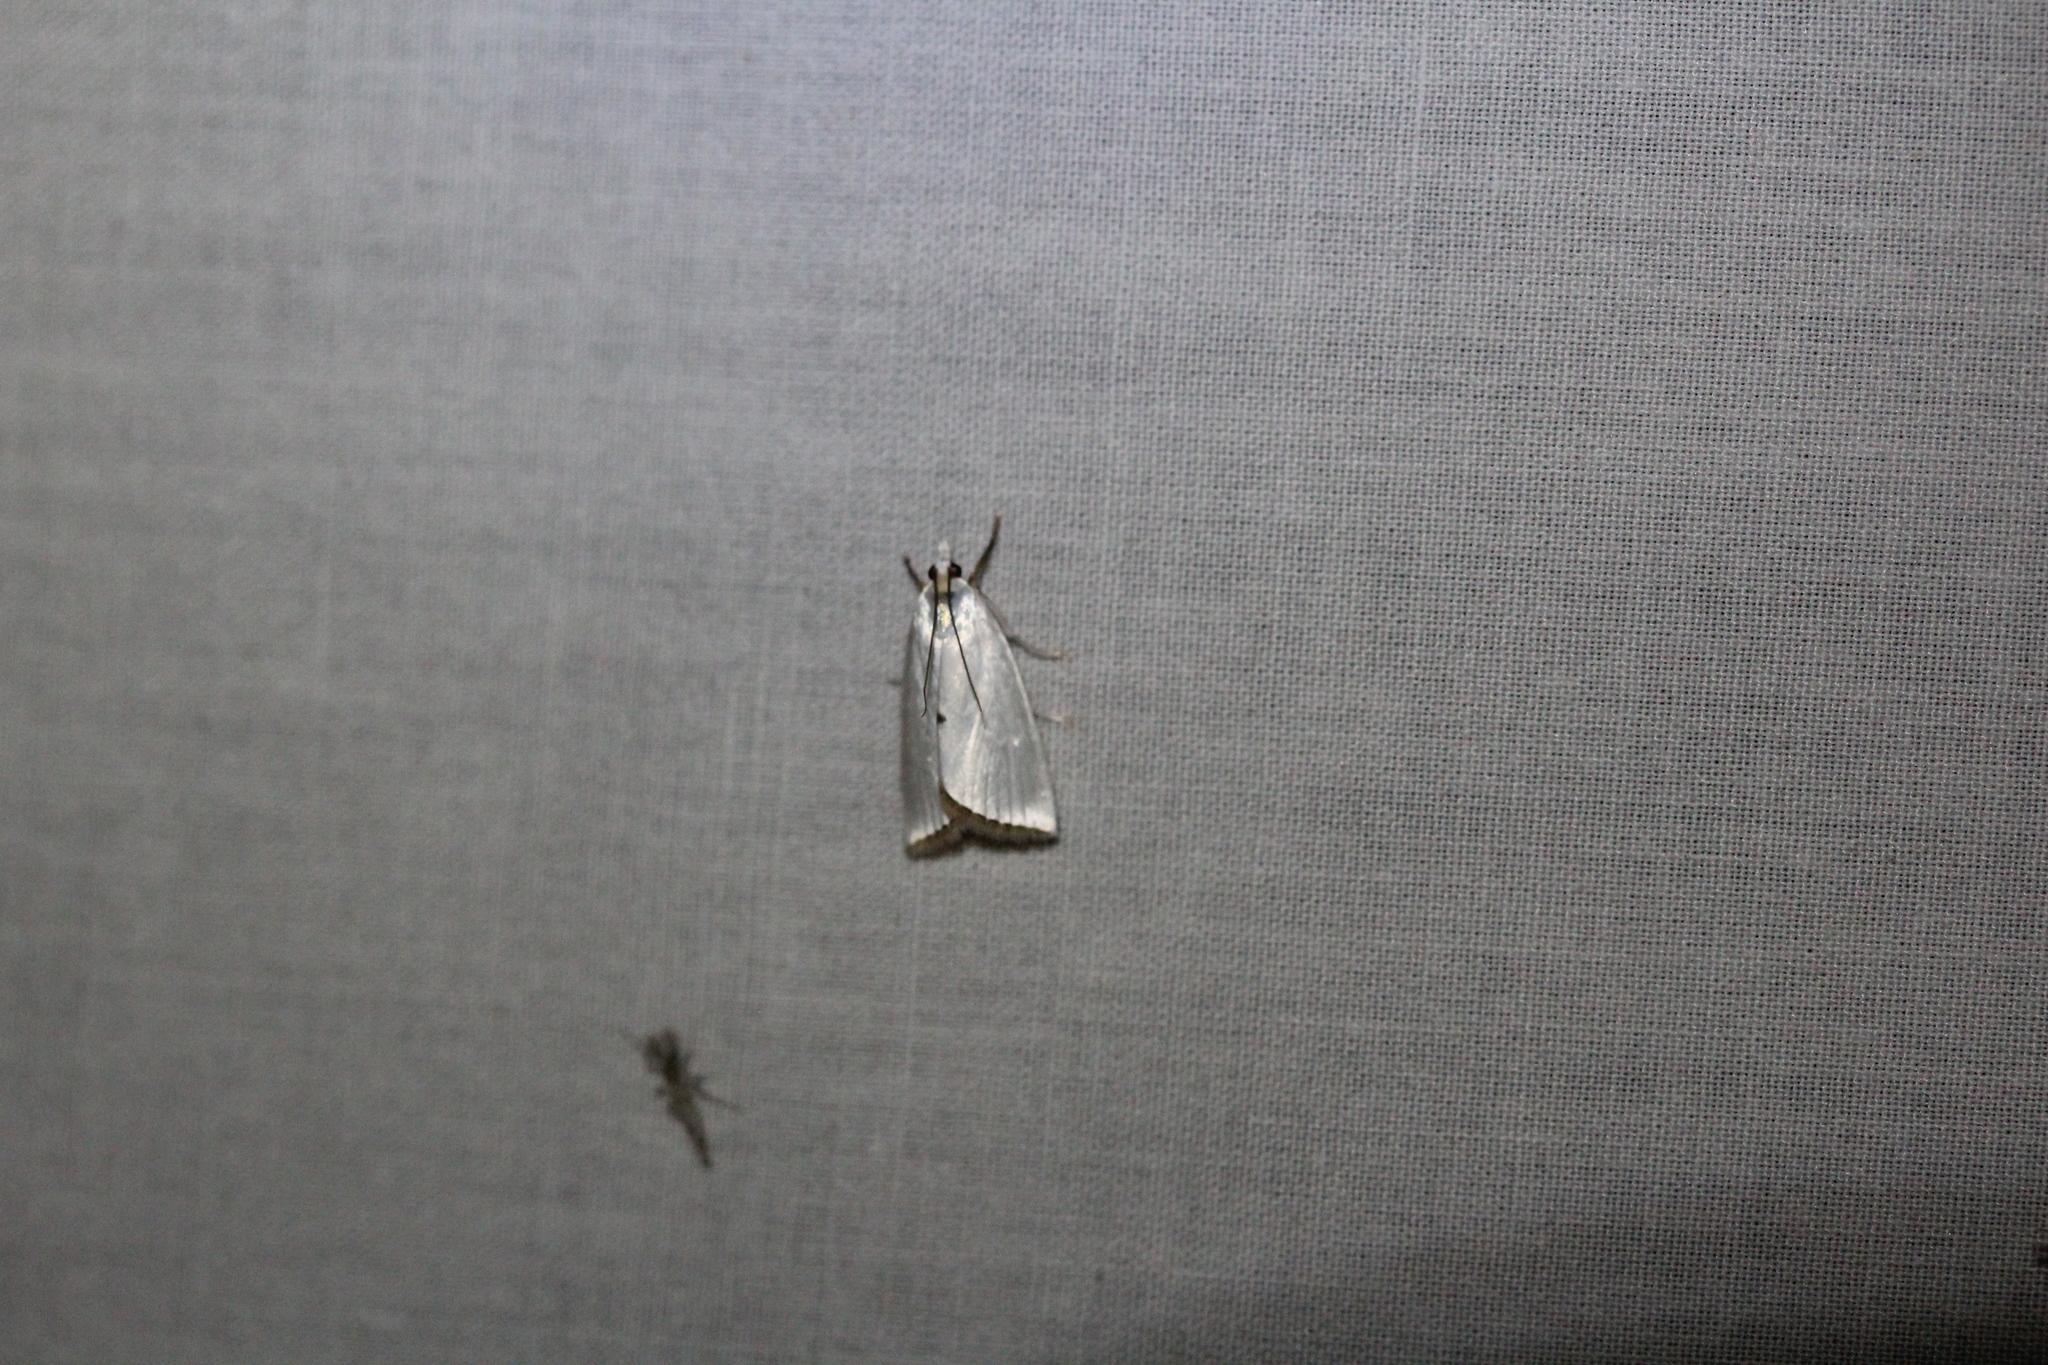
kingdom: Animalia
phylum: Arthropoda
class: Insecta
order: Lepidoptera
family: Crambidae
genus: Argyria
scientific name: Argyria nivalis
